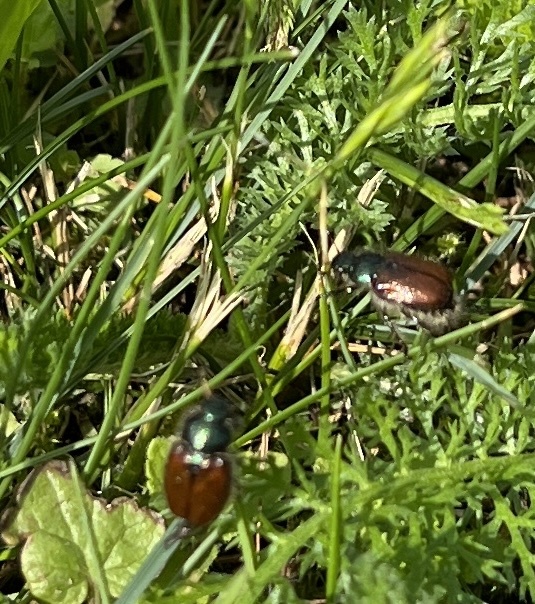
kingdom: Animalia
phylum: Arthropoda
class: Insecta
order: Coleoptera
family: Scarabaeidae
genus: Phyllopertha
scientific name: Phyllopertha horticola
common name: Garden chafer
